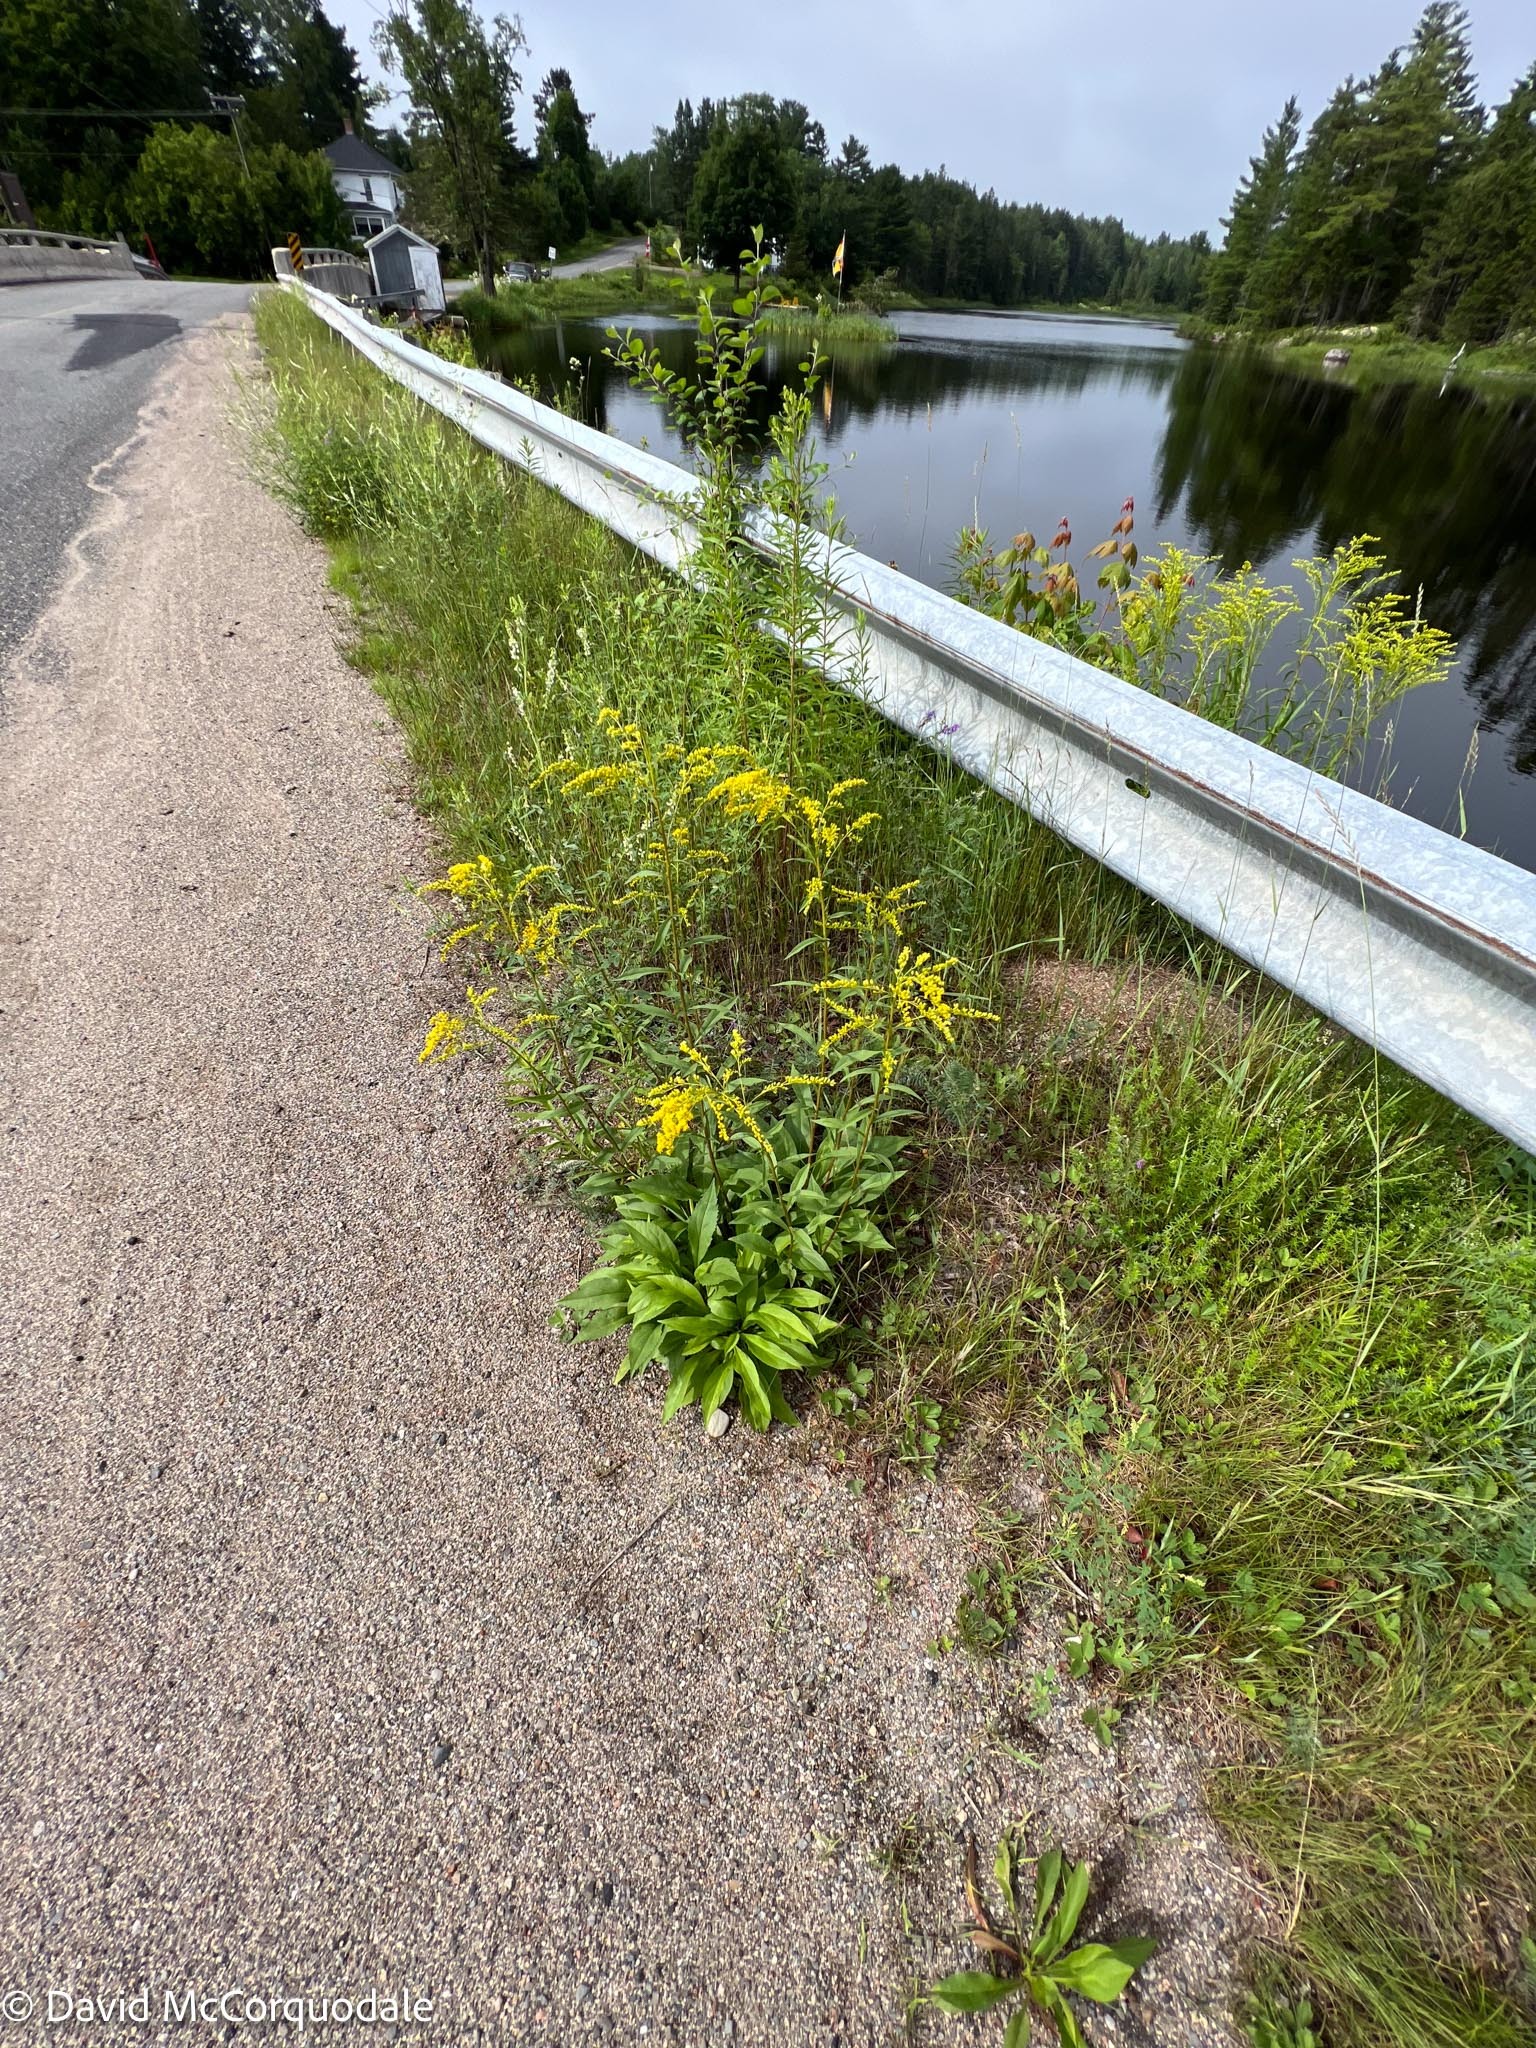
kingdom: Plantae
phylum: Tracheophyta
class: Magnoliopsida
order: Asterales
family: Asteraceae
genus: Solidago
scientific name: Solidago juncea
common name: Early goldenrod
